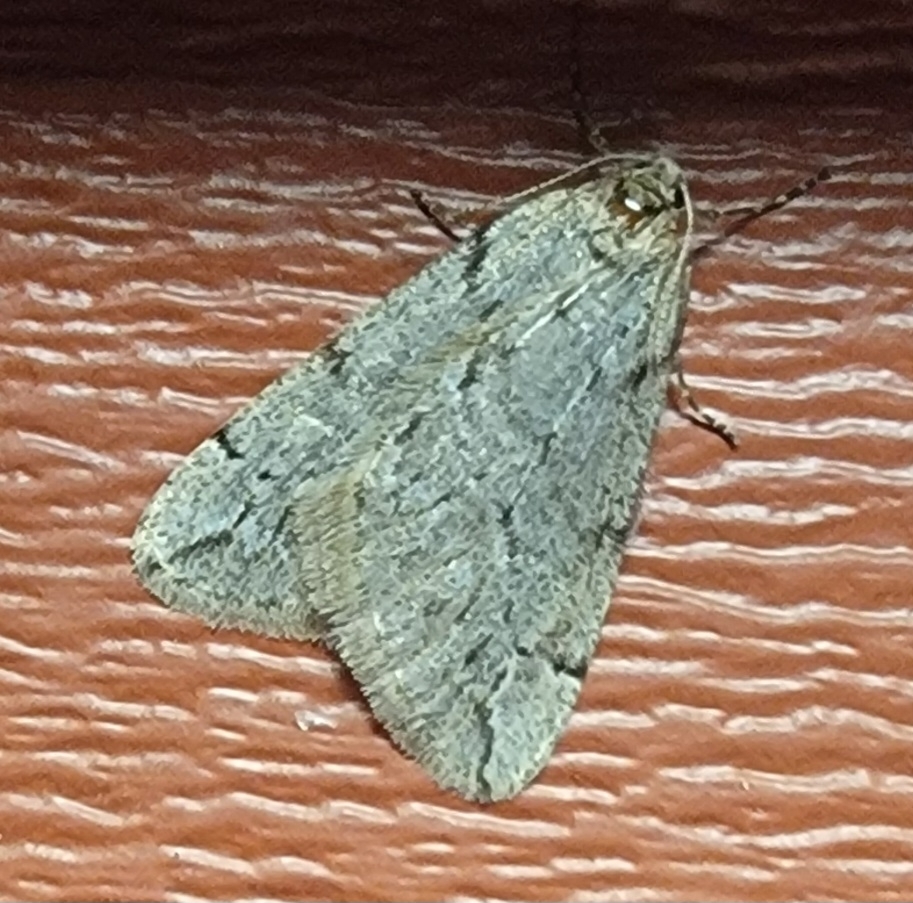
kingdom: Animalia
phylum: Arthropoda
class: Insecta
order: Lepidoptera
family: Geometridae
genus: Paleacrita
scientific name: Paleacrita vernata
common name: Spring cankerworm
